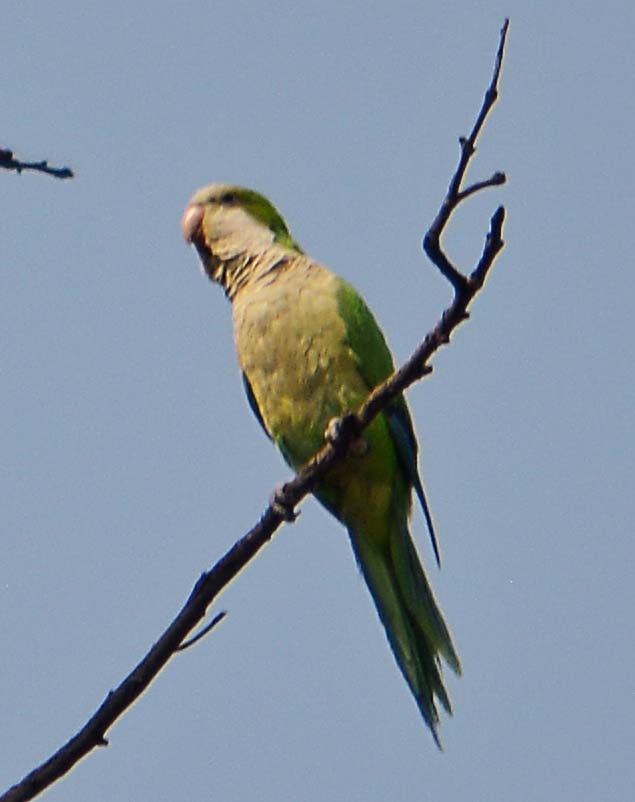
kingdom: Animalia
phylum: Chordata
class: Aves
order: Psittaciformes
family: Psittacidae
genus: Myiopsitta
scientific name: Myiopsitta monachus
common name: Monk parakeet
